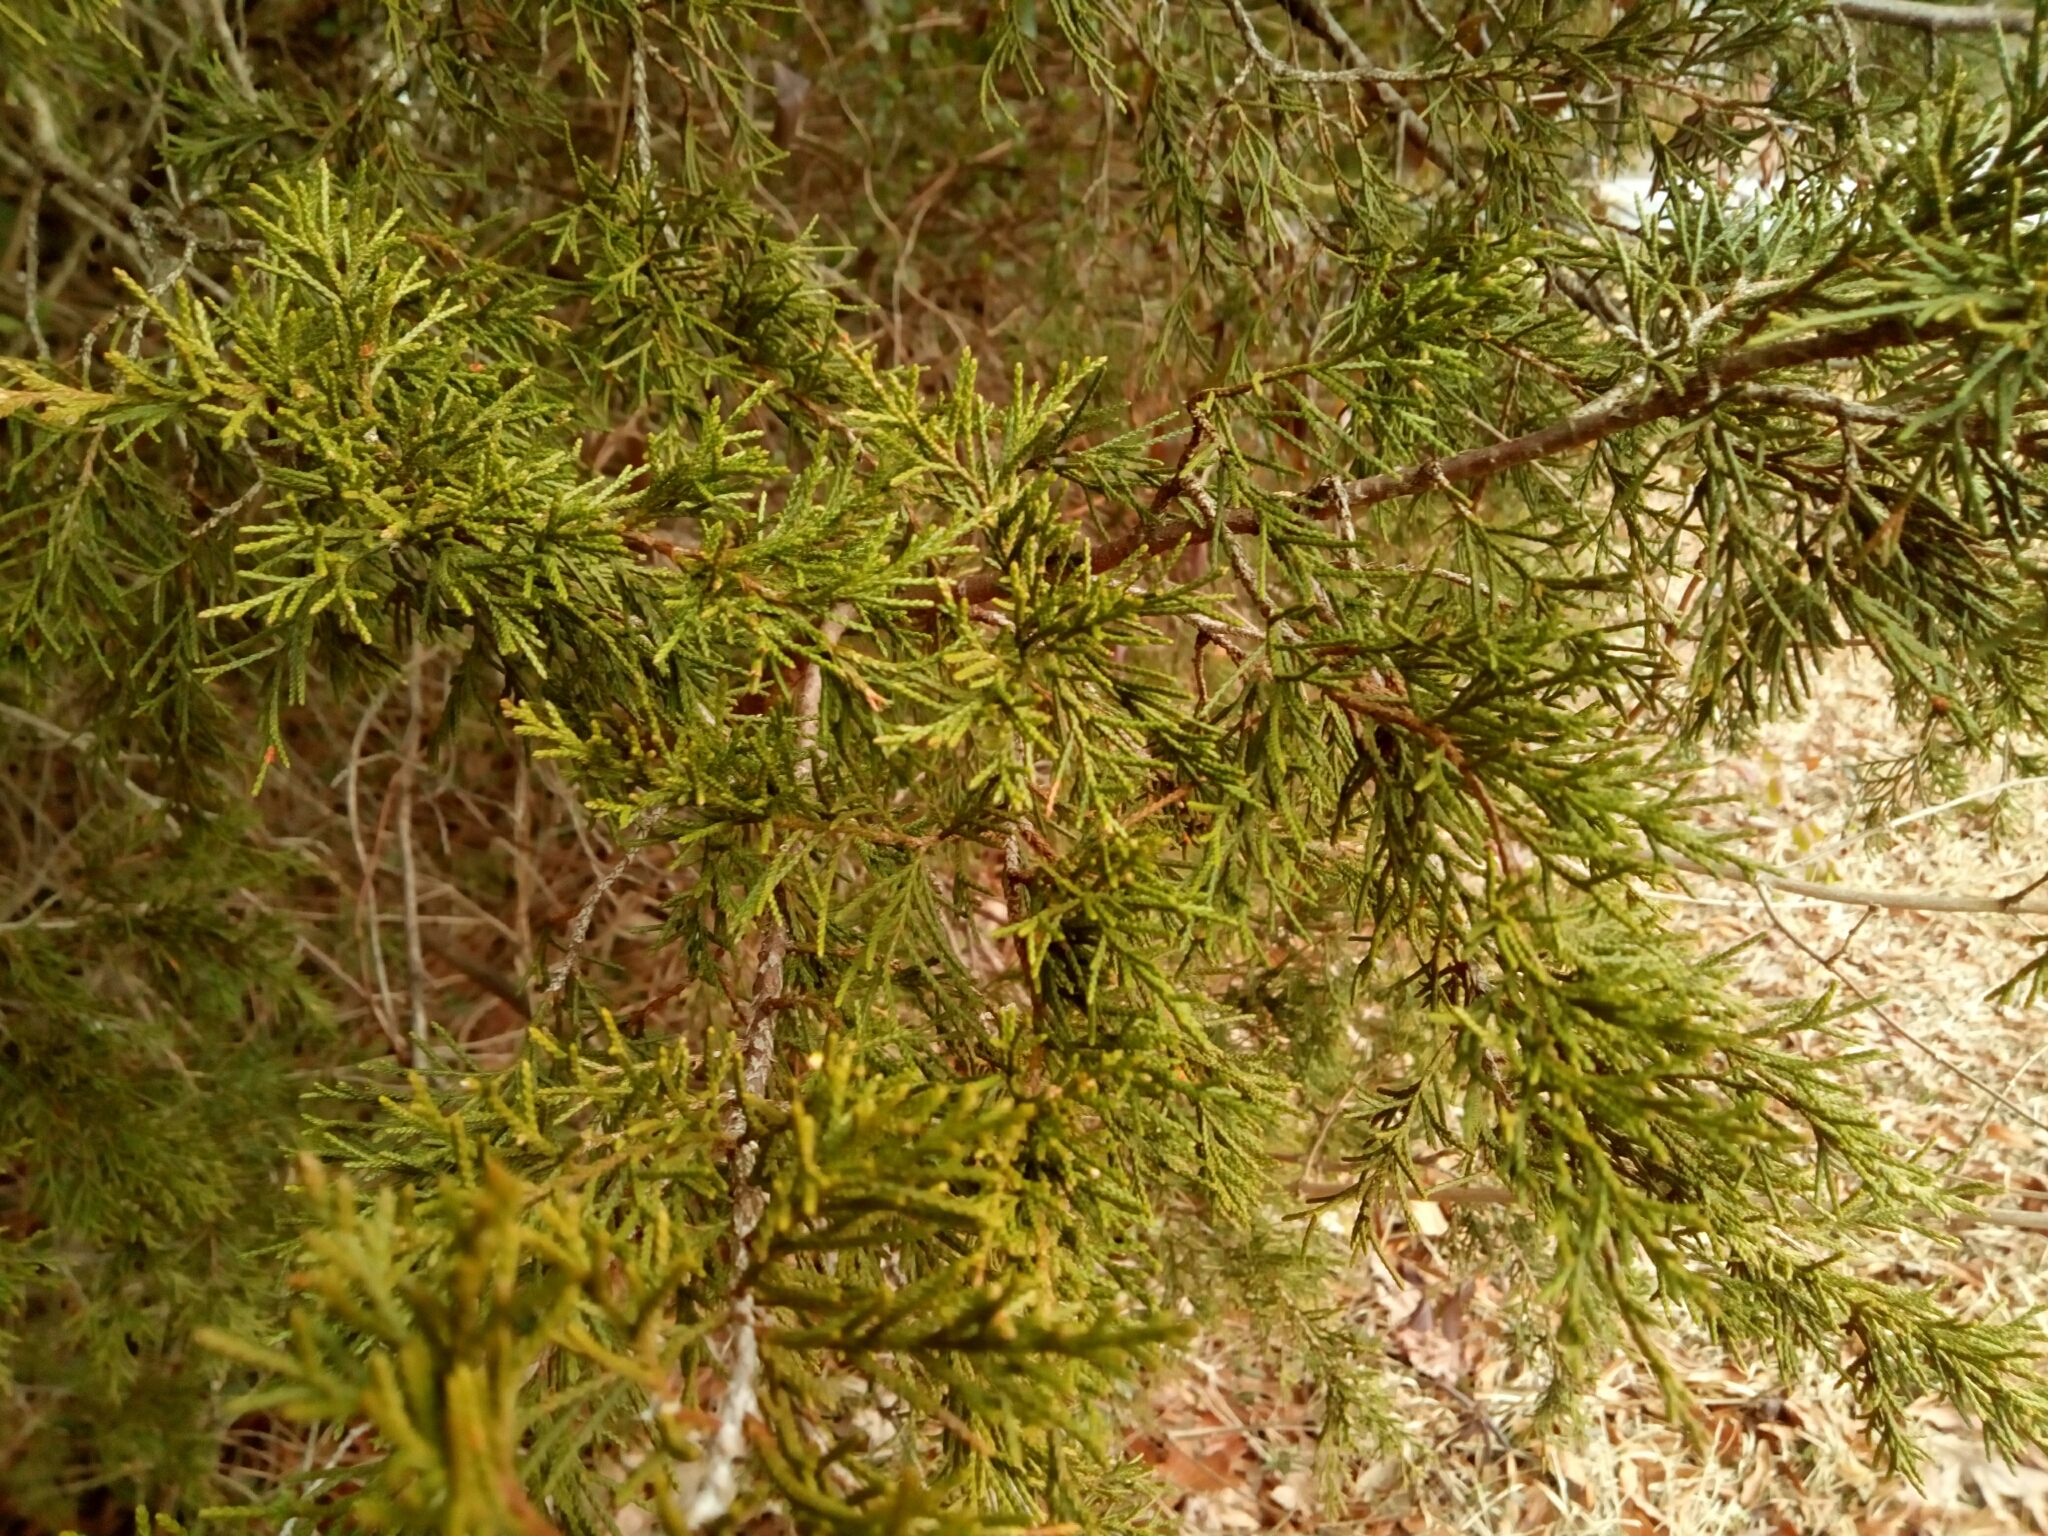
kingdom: Plantae
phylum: Tracheophyta
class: Pinopsida
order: Pinales
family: Cupressaceae
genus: Juniperus
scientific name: Juniperus virginiana
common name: Red juniper
